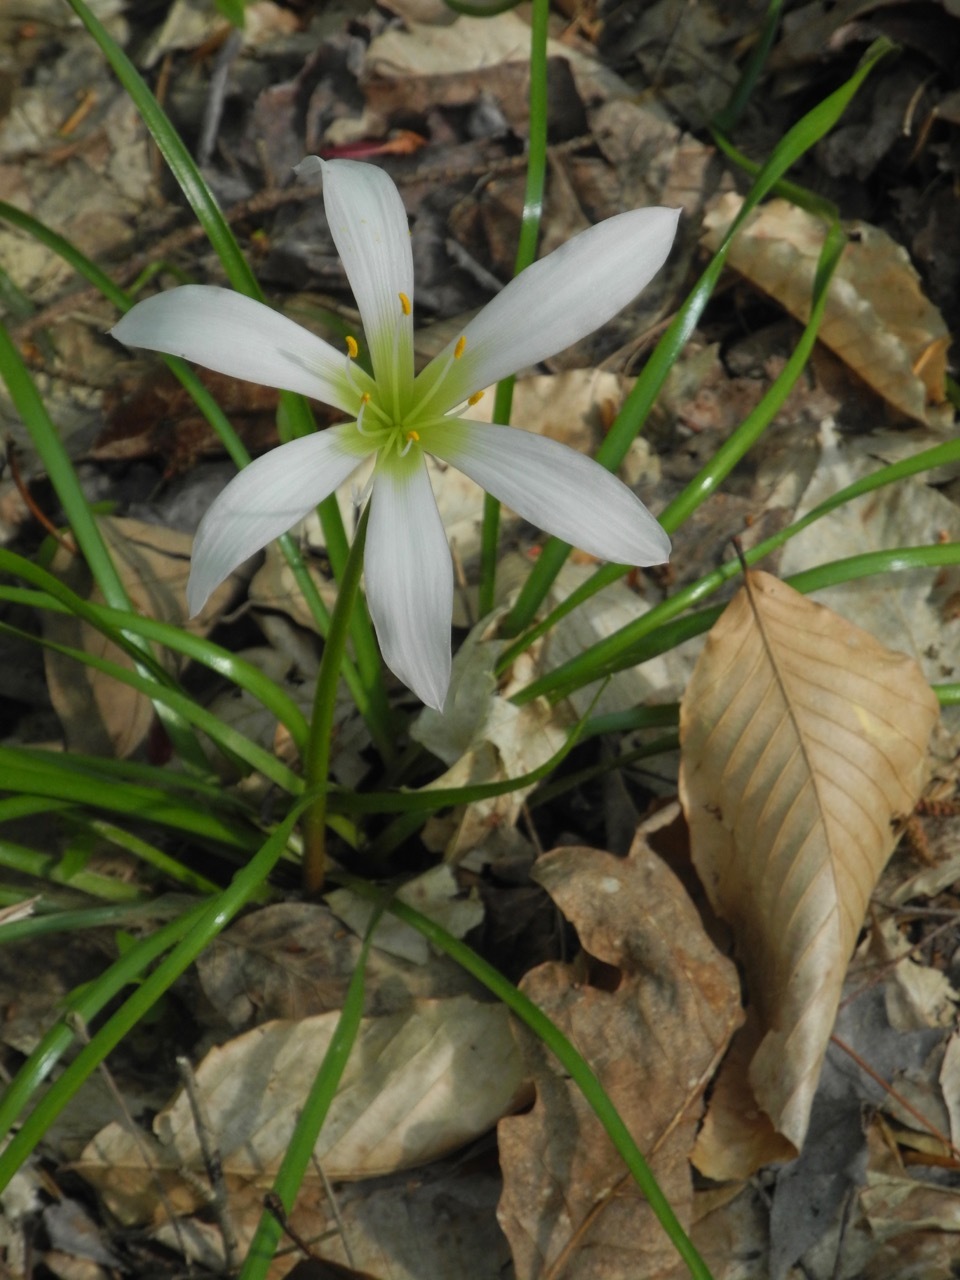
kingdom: Plantae
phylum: Tracheophyta
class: Liliopsida
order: Asparagales
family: Amaryllidaceae
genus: Zephyranthes
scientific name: Zephyranthes atamasco
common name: Atamasco lily
